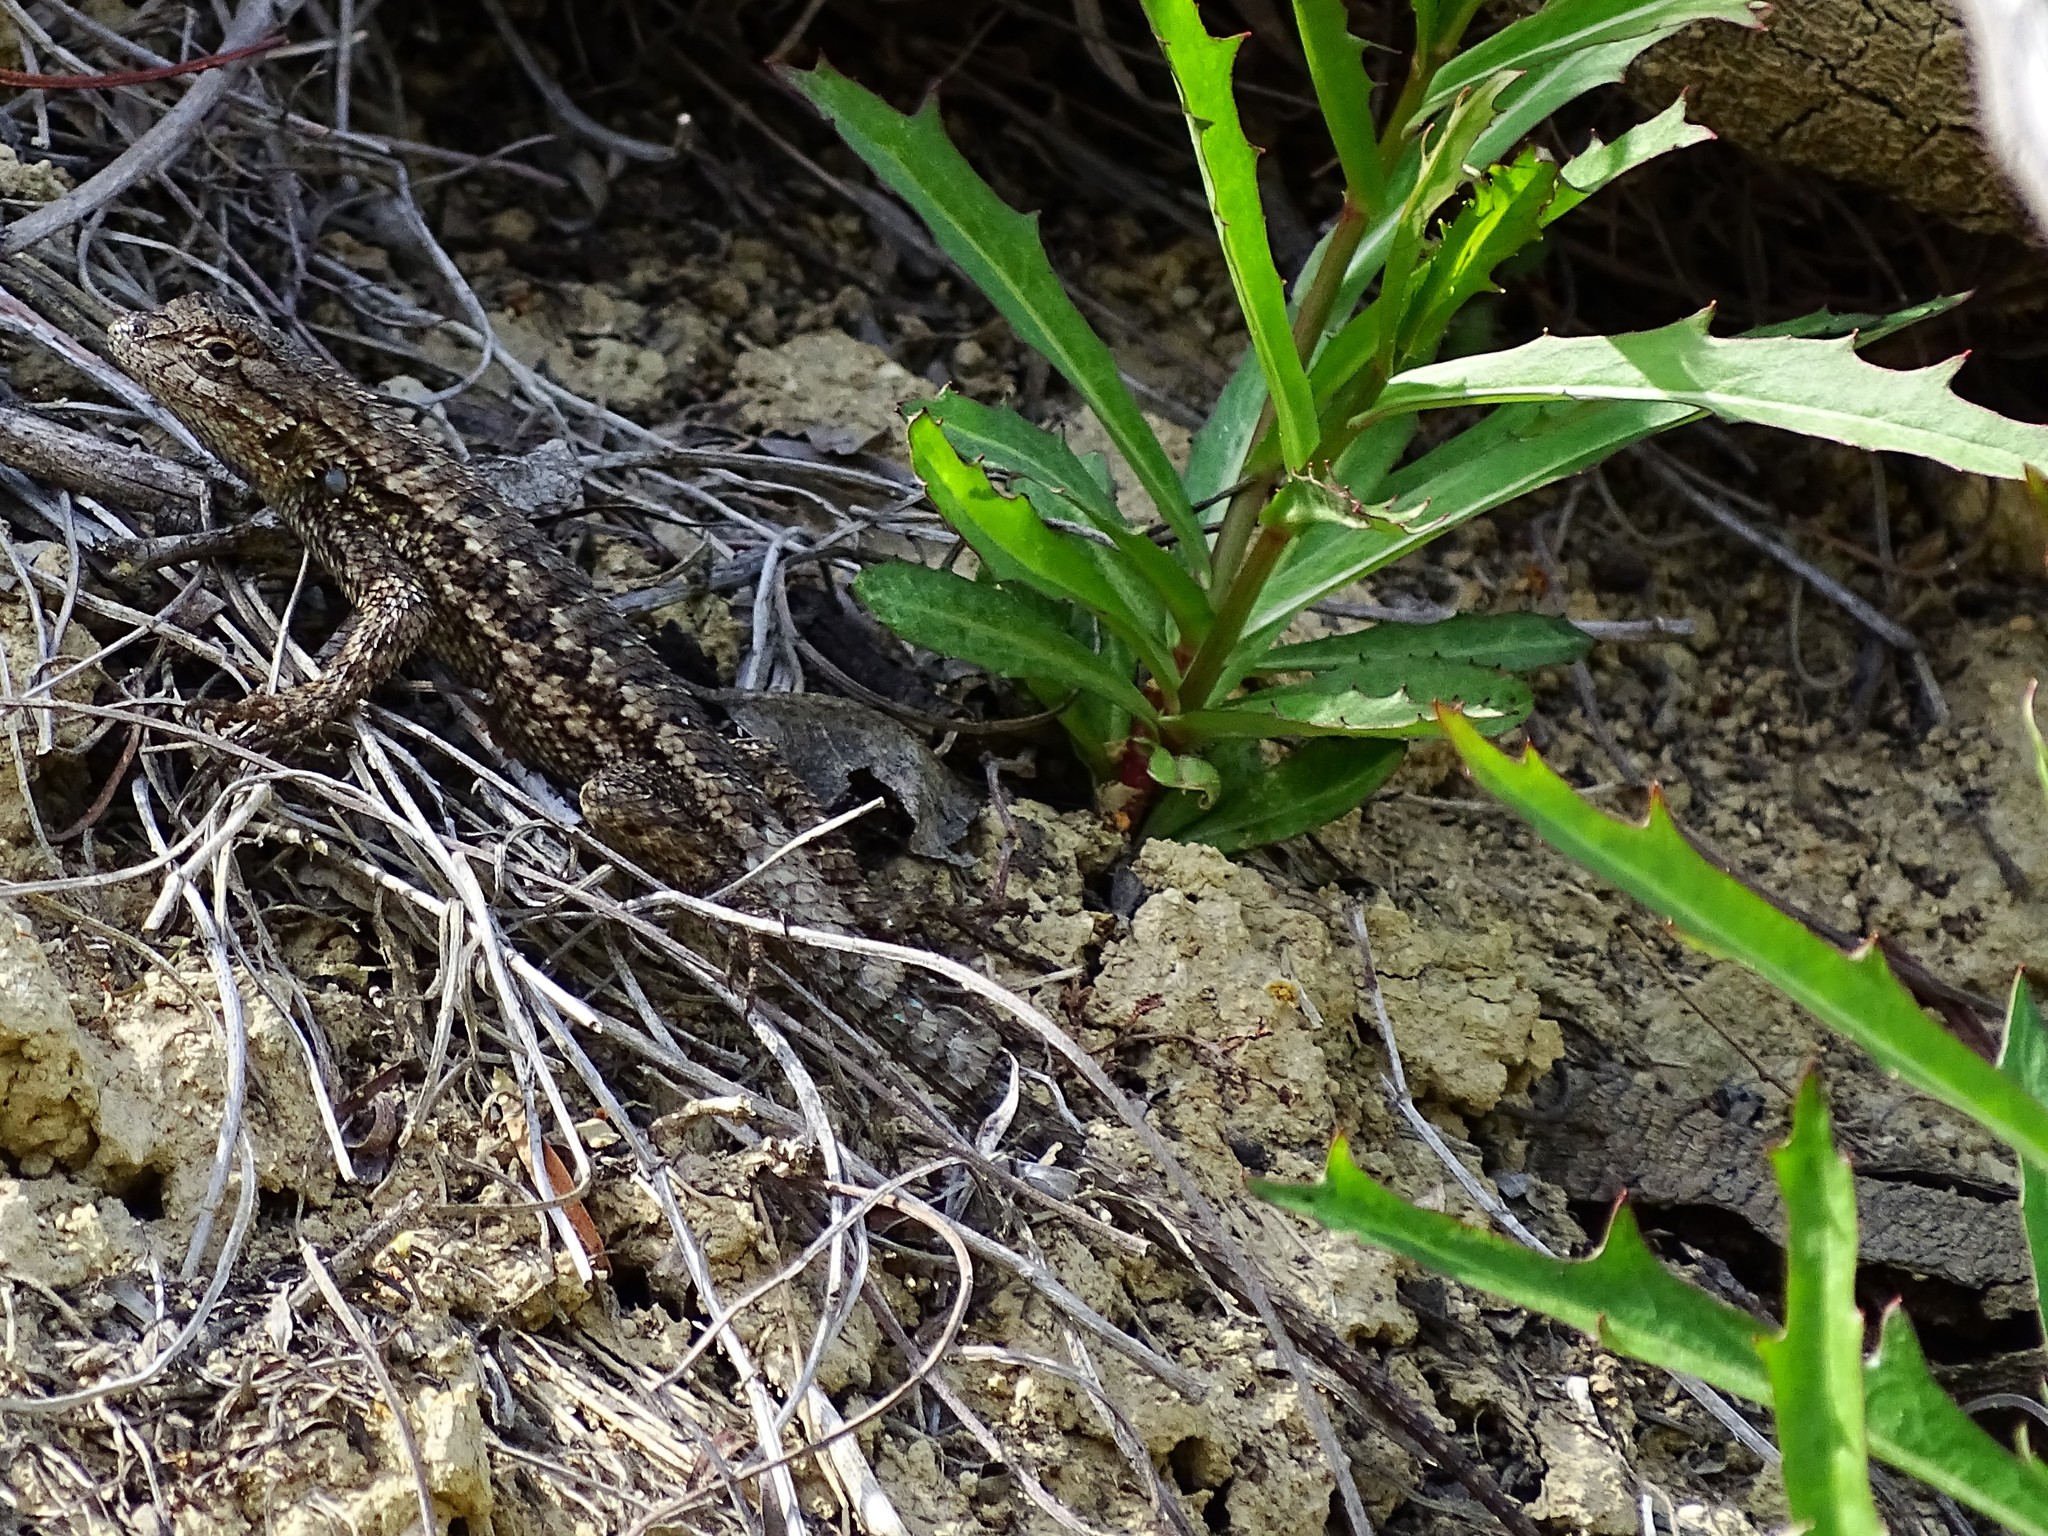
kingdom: Animalia
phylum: Chordata
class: Squamata
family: Phrynosomatidae
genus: Sceloporus
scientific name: Sceloporus occidentalis
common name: Western fence lizard
